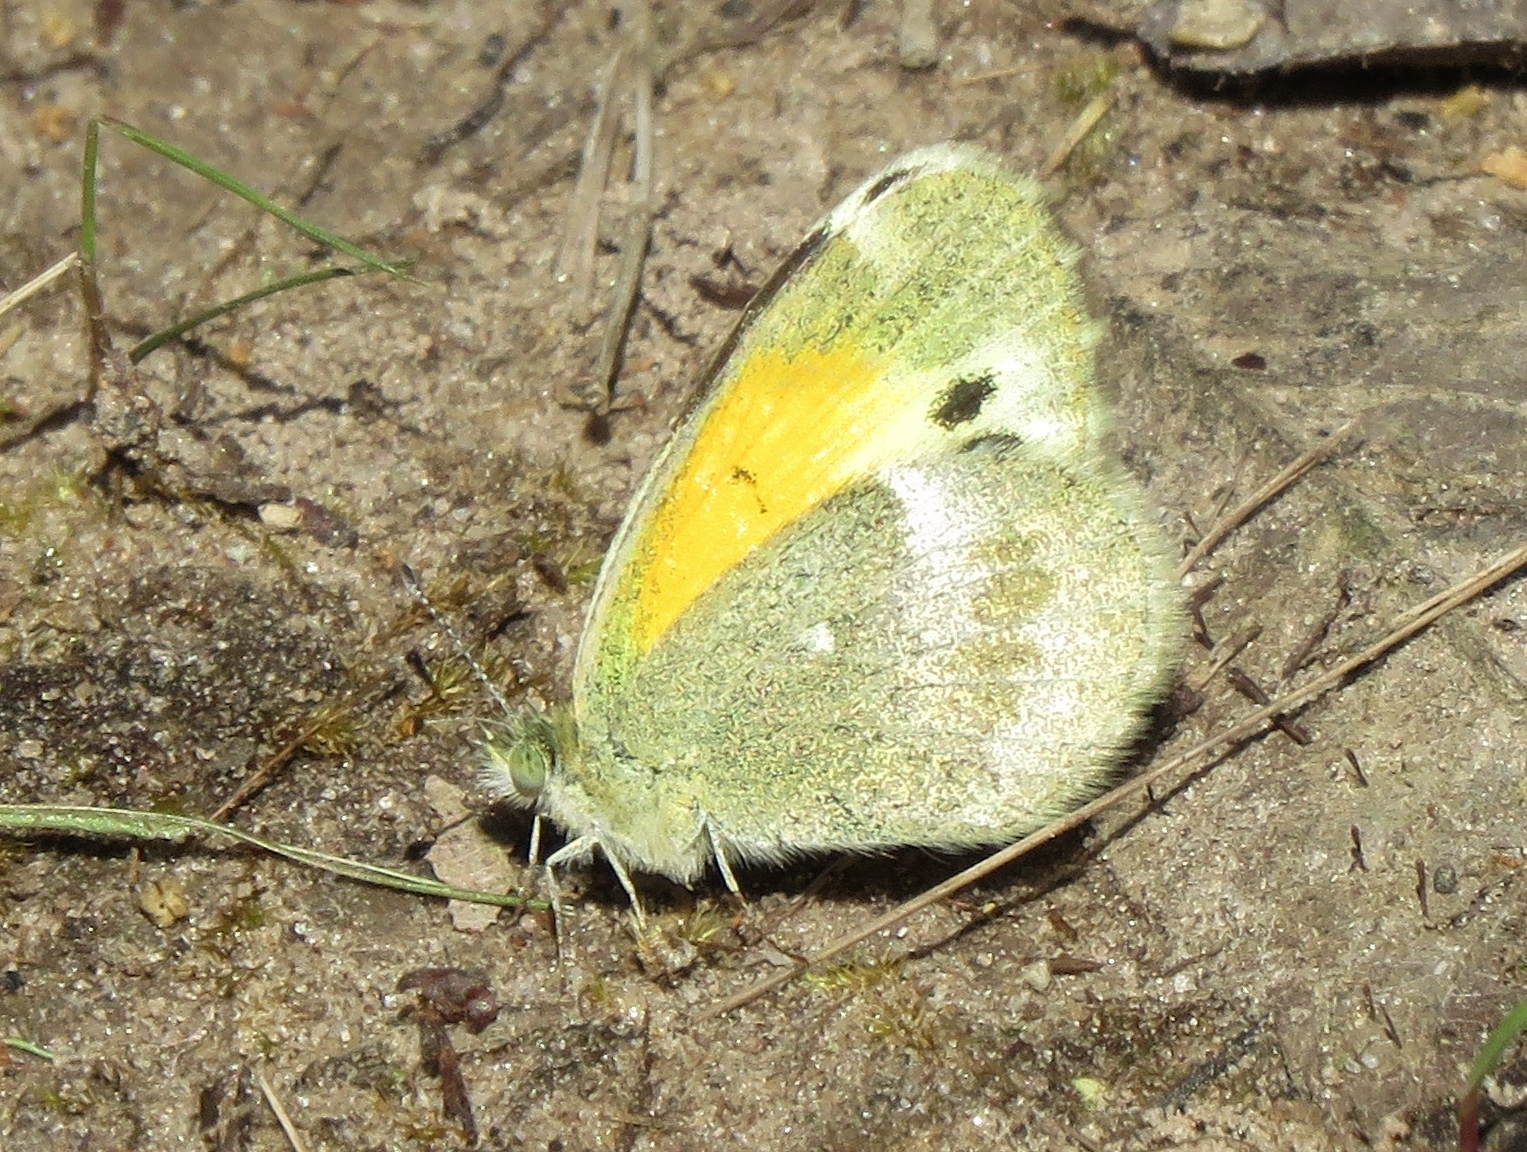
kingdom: Animalia
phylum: Arthropoda
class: Insecta
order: Lepidoptera
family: Pieridae
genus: Nathalis
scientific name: Nathalis iole
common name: Dainty sulphur
